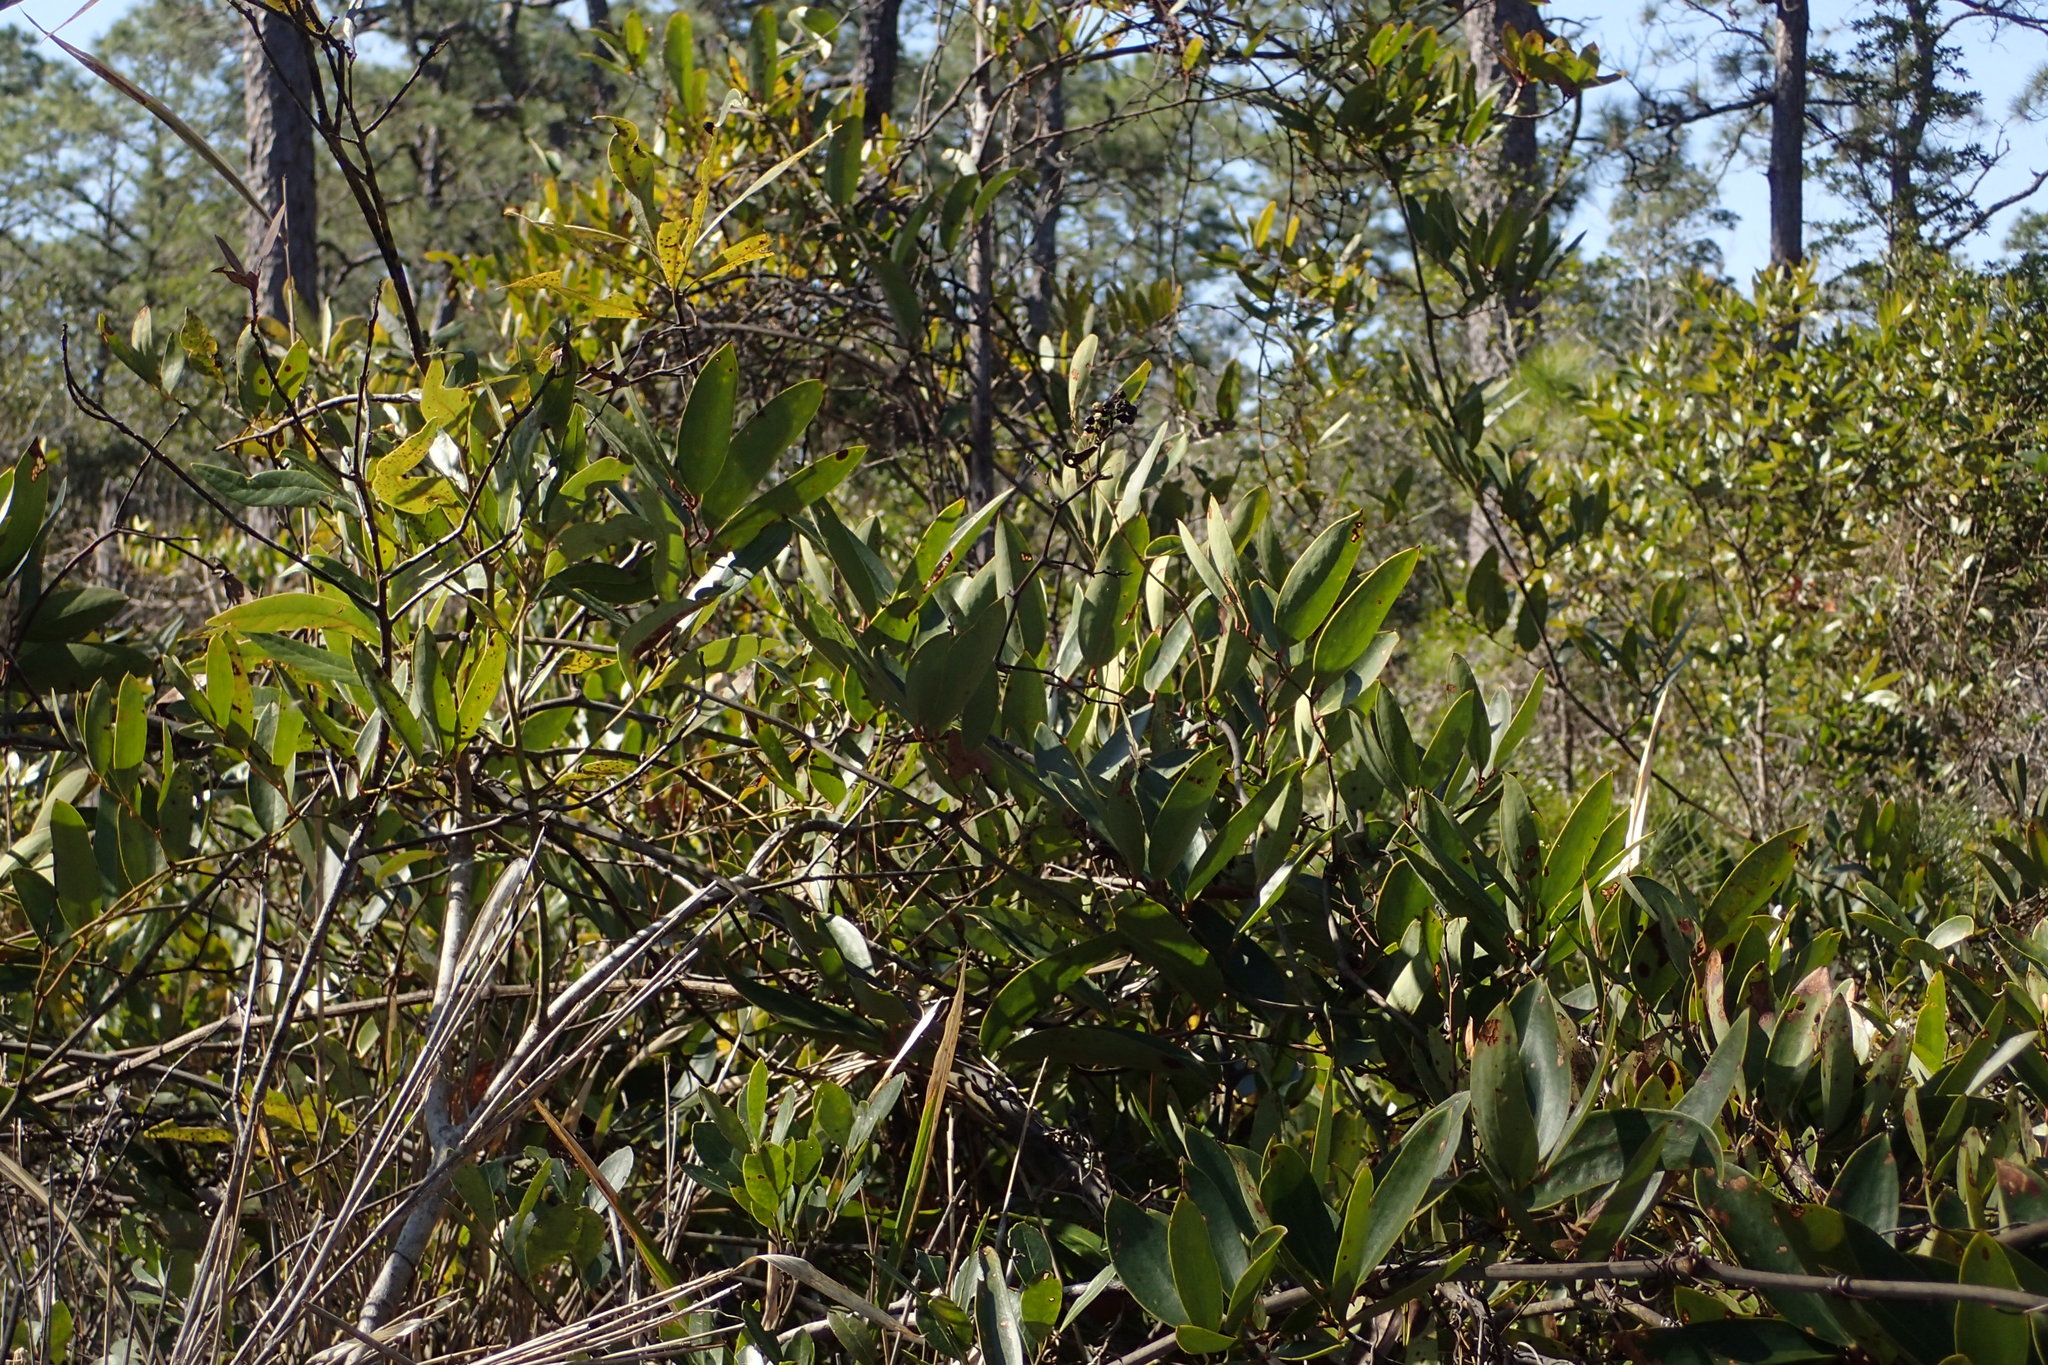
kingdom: Plantae
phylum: Tracheophyta
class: Liliopsida
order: Liliales
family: Smilacaceae
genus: Smilax
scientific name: Smilax laurifolia
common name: Bamboovine
